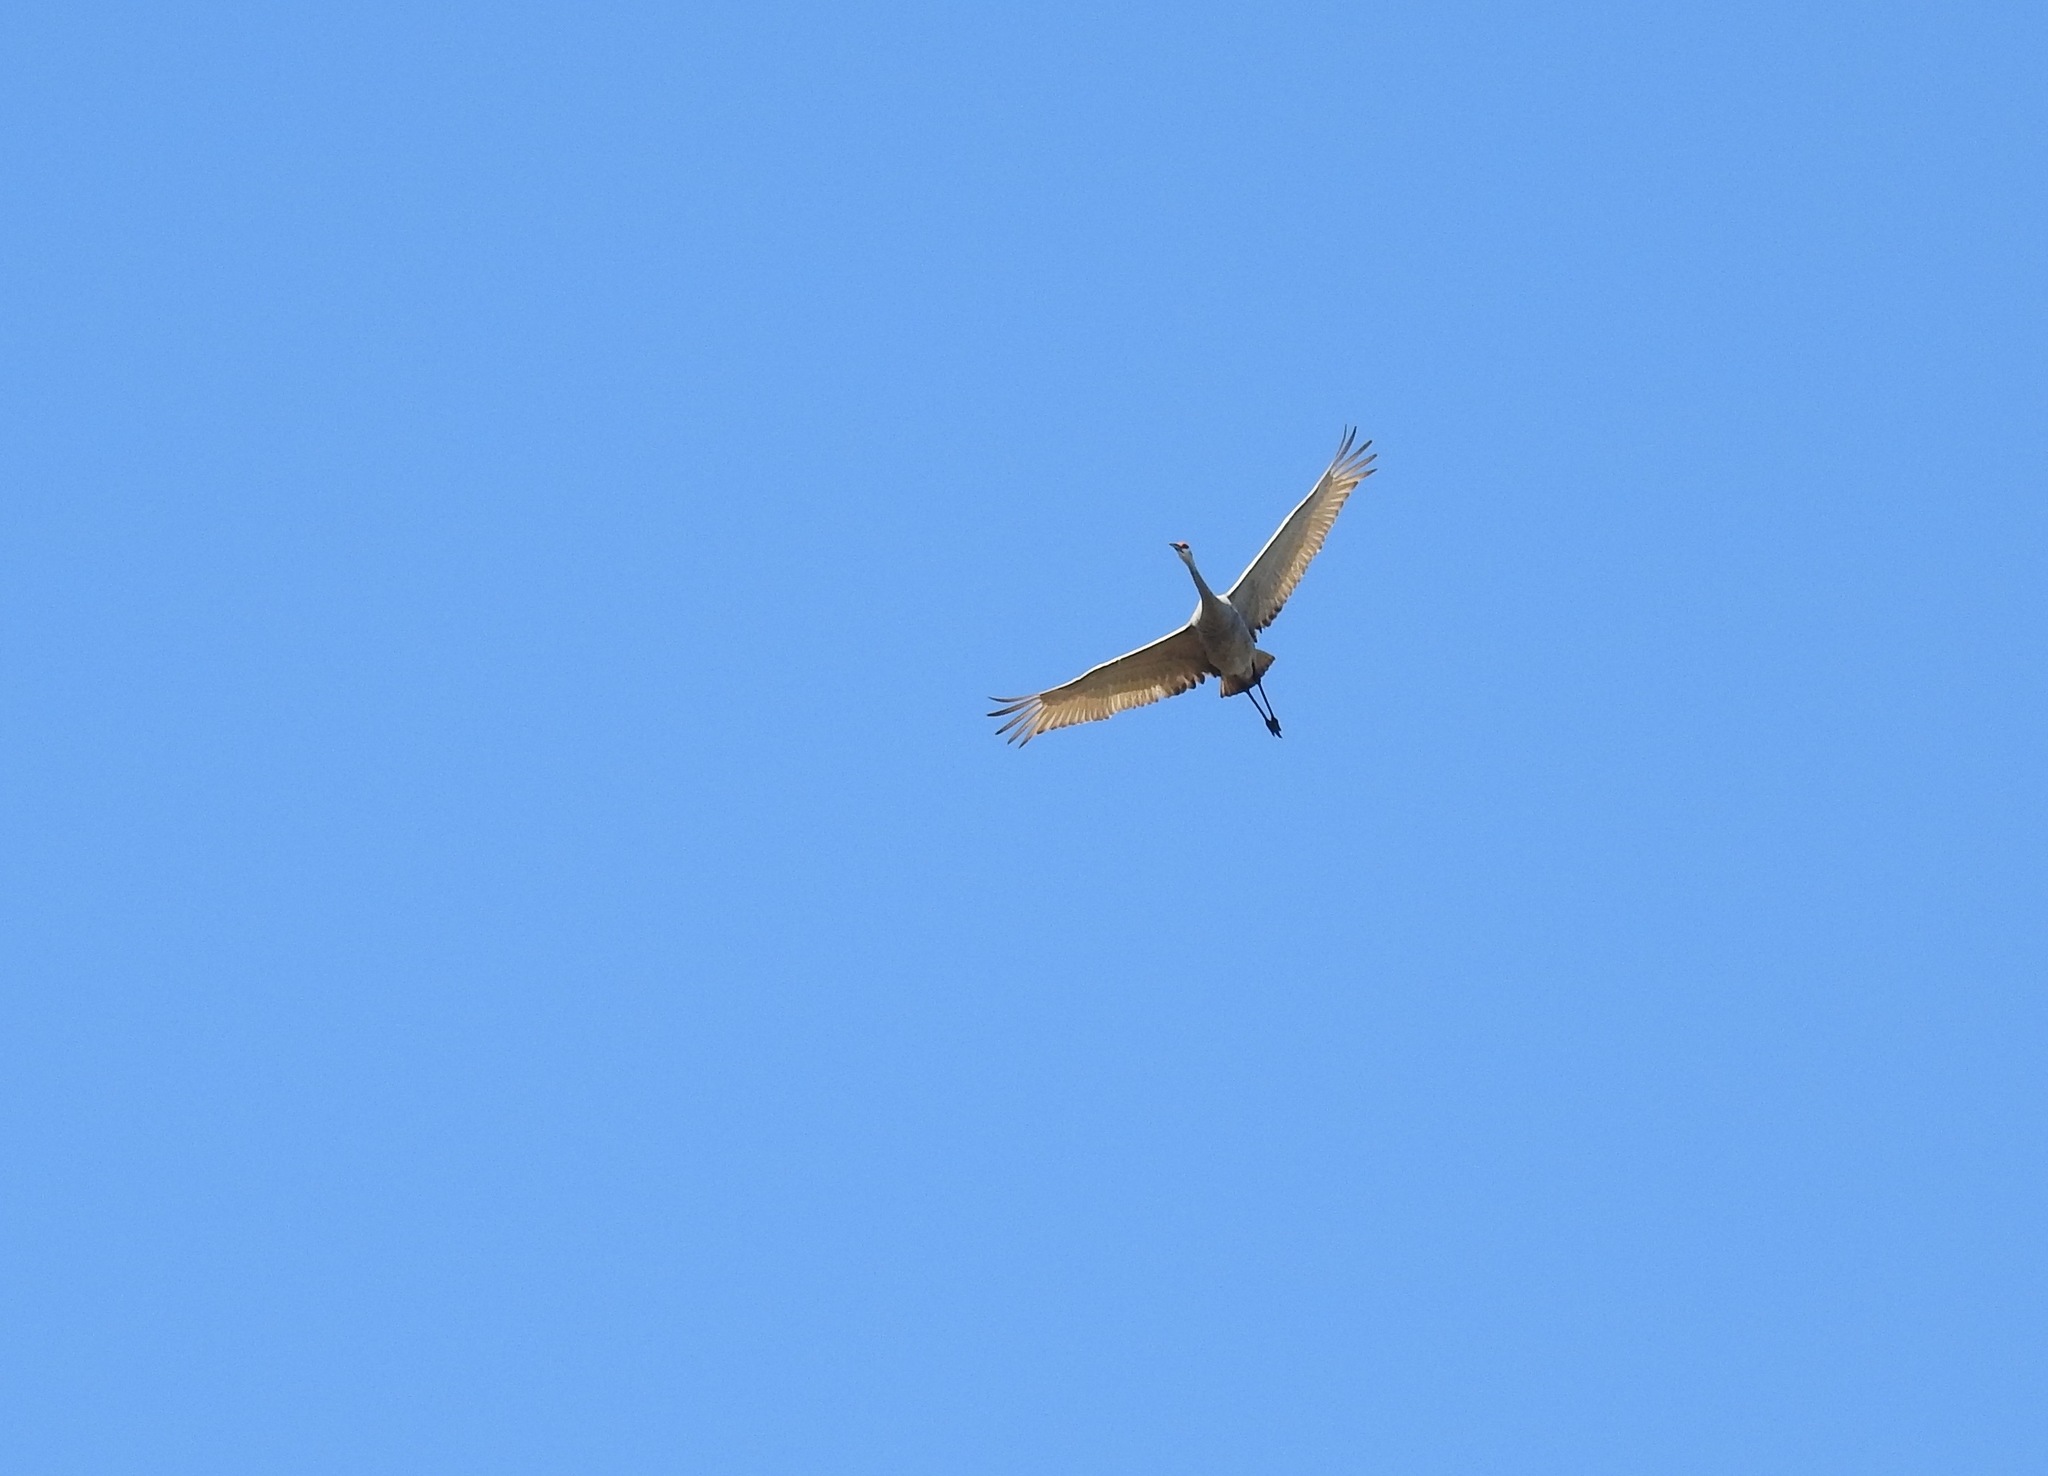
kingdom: Animalia
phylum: Chordata
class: Aves
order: Gruiformes
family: Gruidae
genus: Grus
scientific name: Grus canadensis
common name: Sandhill crane
